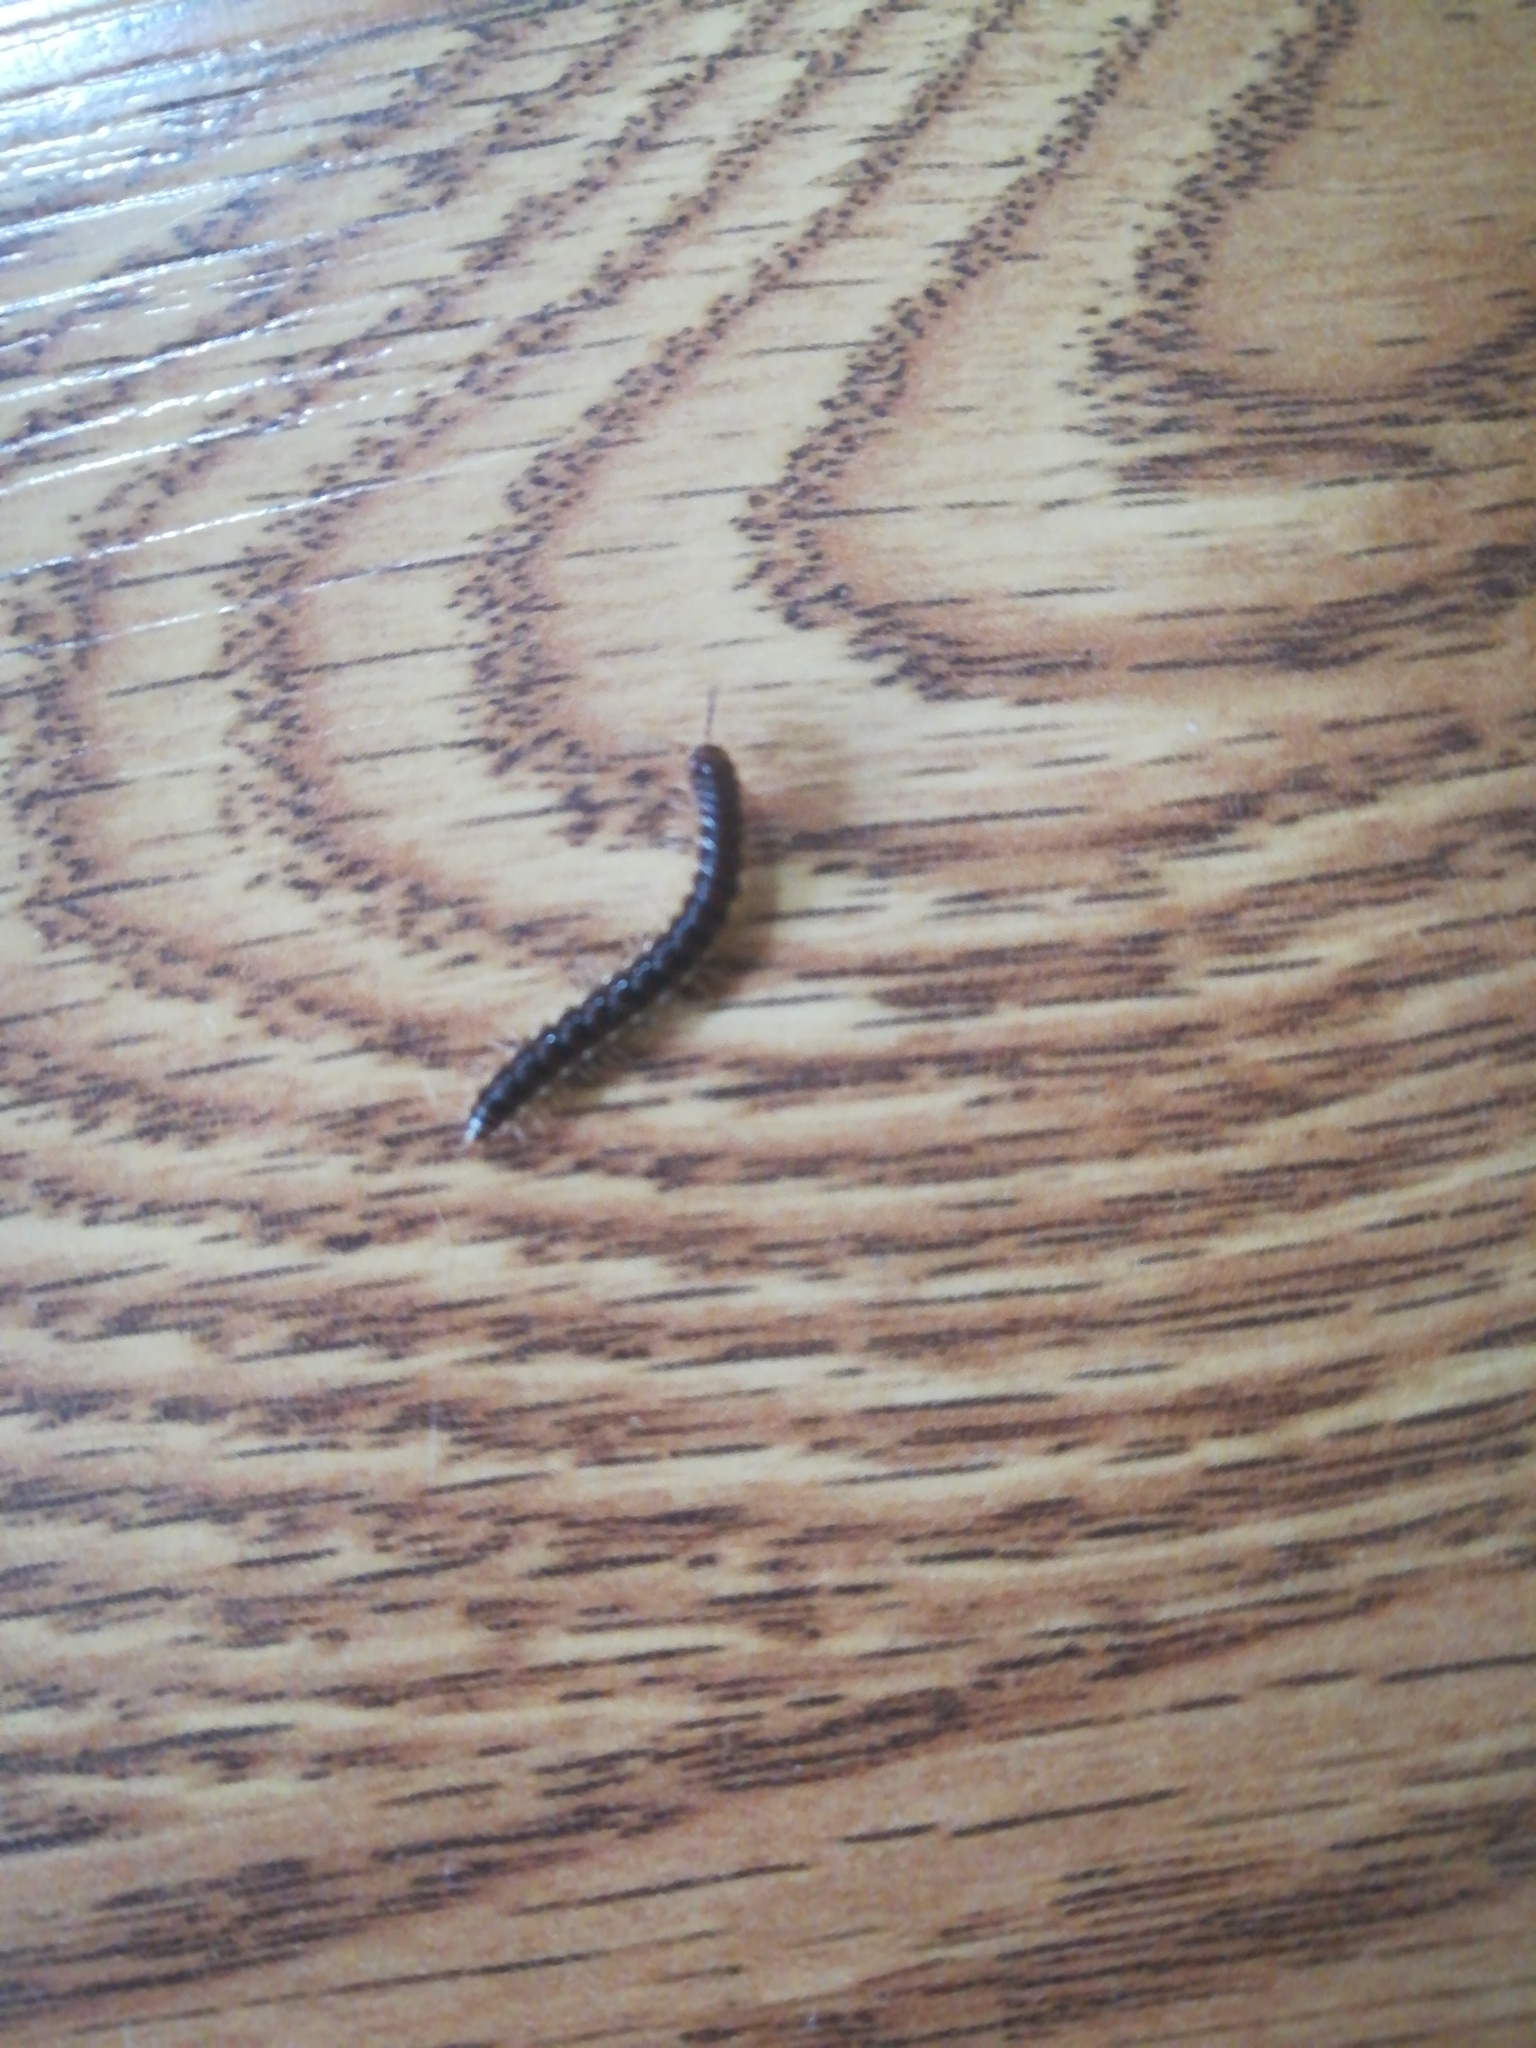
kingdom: Animalia
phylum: Arthropoda
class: Diplopoda
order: Polydesmida
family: Paradoxosomatidae
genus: Oxidus
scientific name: Oxidus gracilis
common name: Greenhouse millipede
